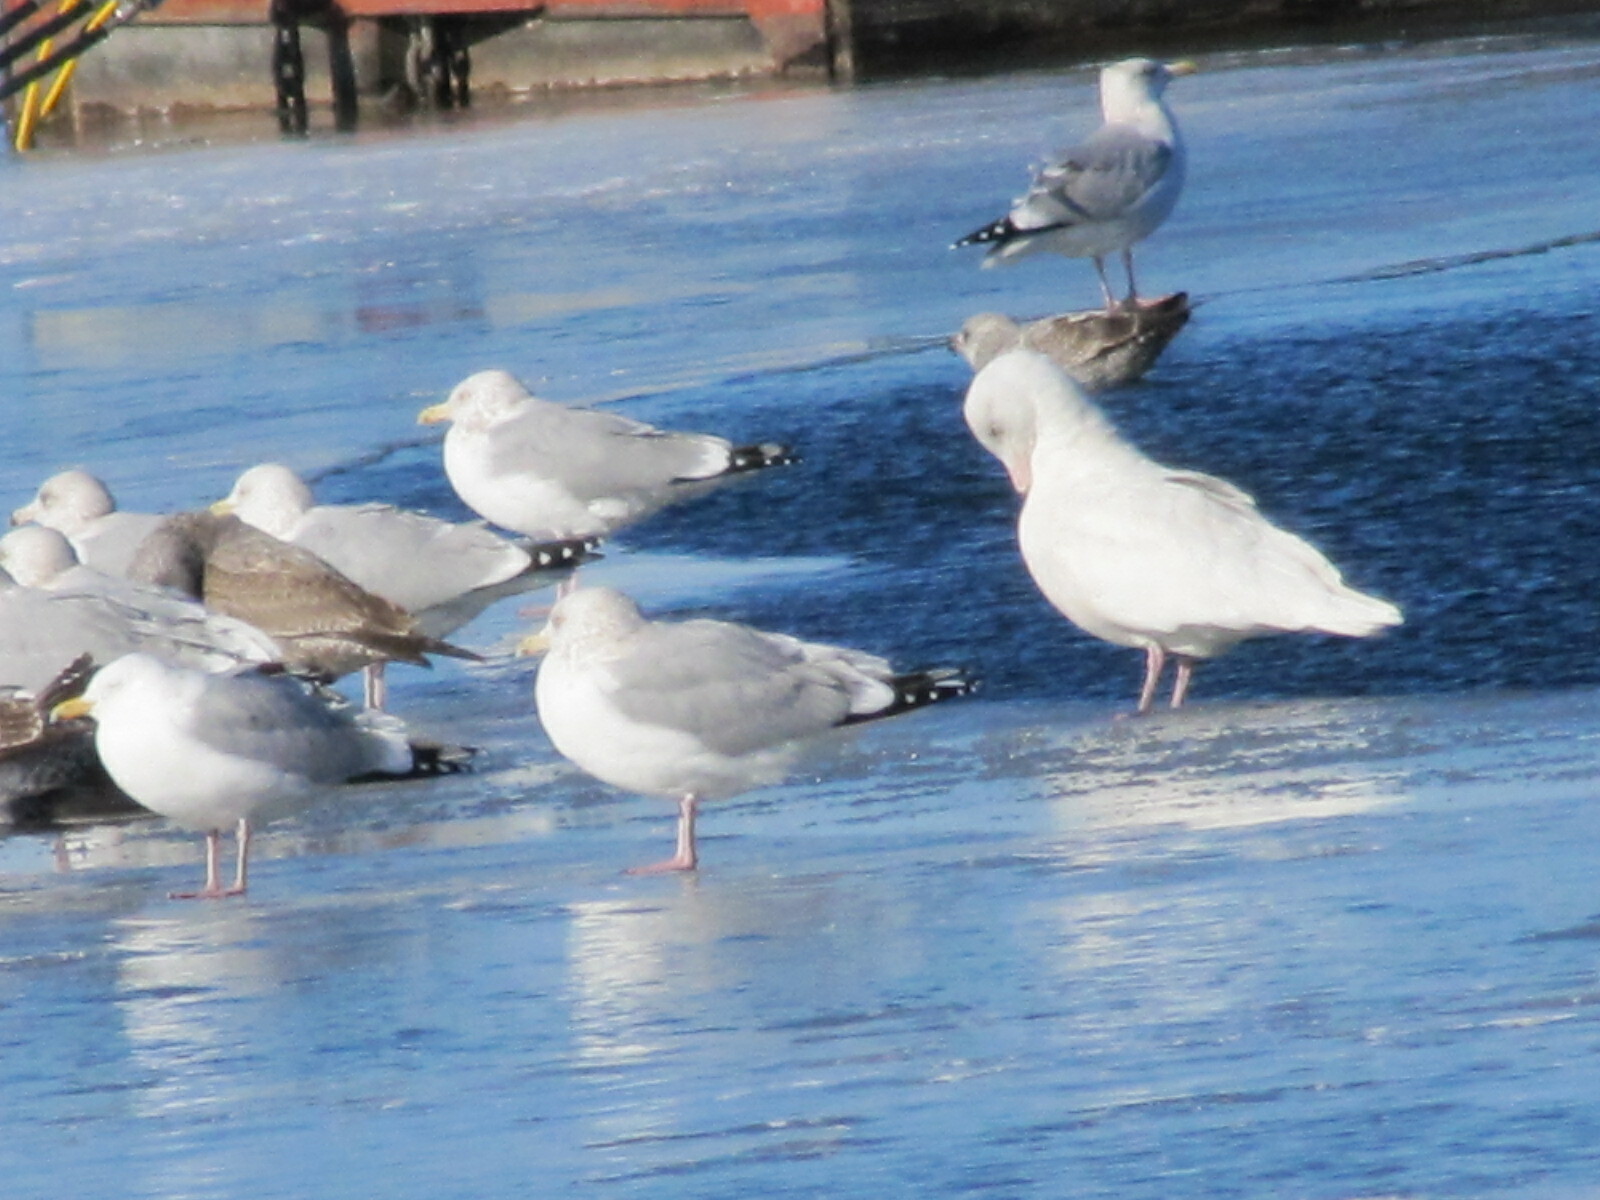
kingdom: Animalia
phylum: Chordata
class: Aves
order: Charadriiformes
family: Laridae
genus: Larus
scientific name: Larus hyperboreus
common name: Glaucous gull
